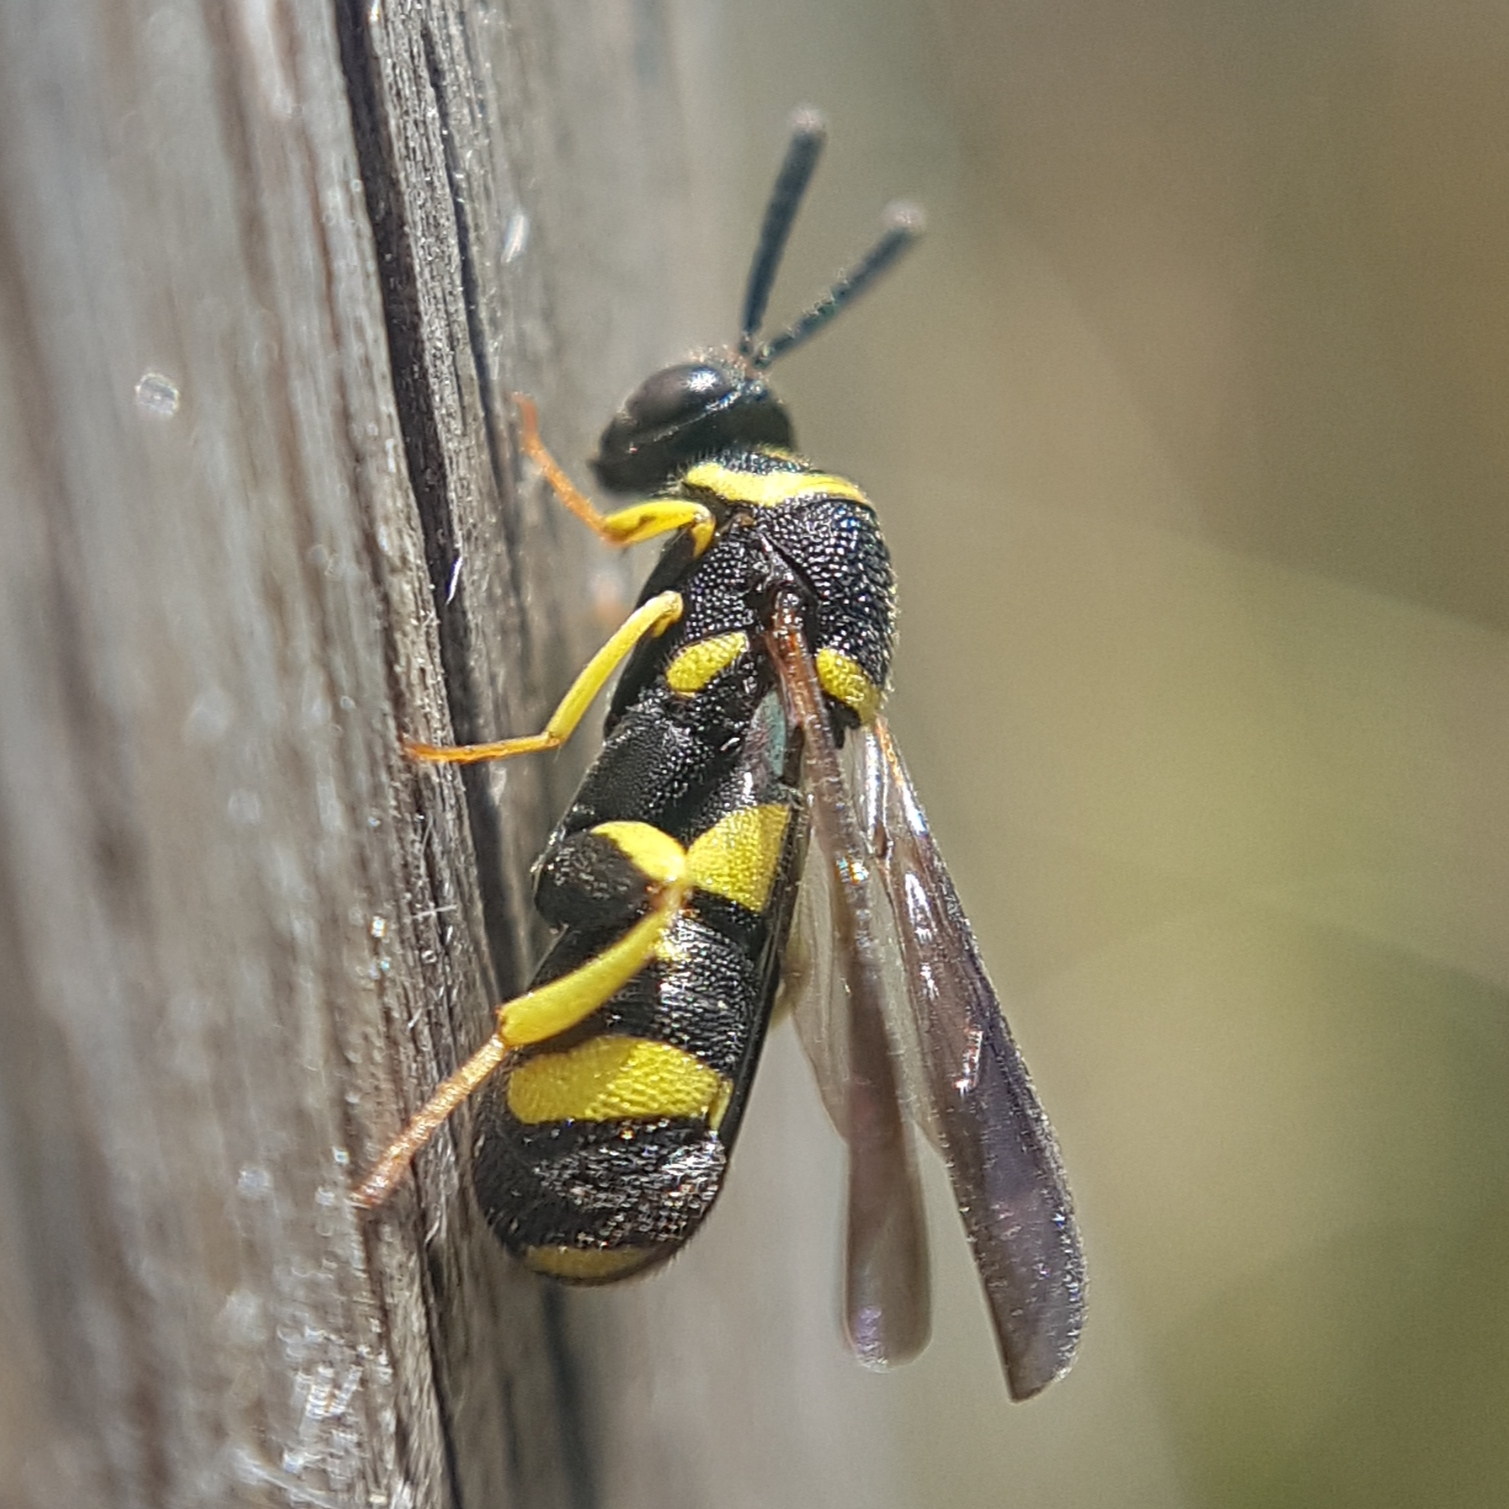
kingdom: Animalia
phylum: Arthropoda
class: Insecta
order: Hymenoptera
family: Leucospidae
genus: Leucospis
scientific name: Leucospis dorsigera
